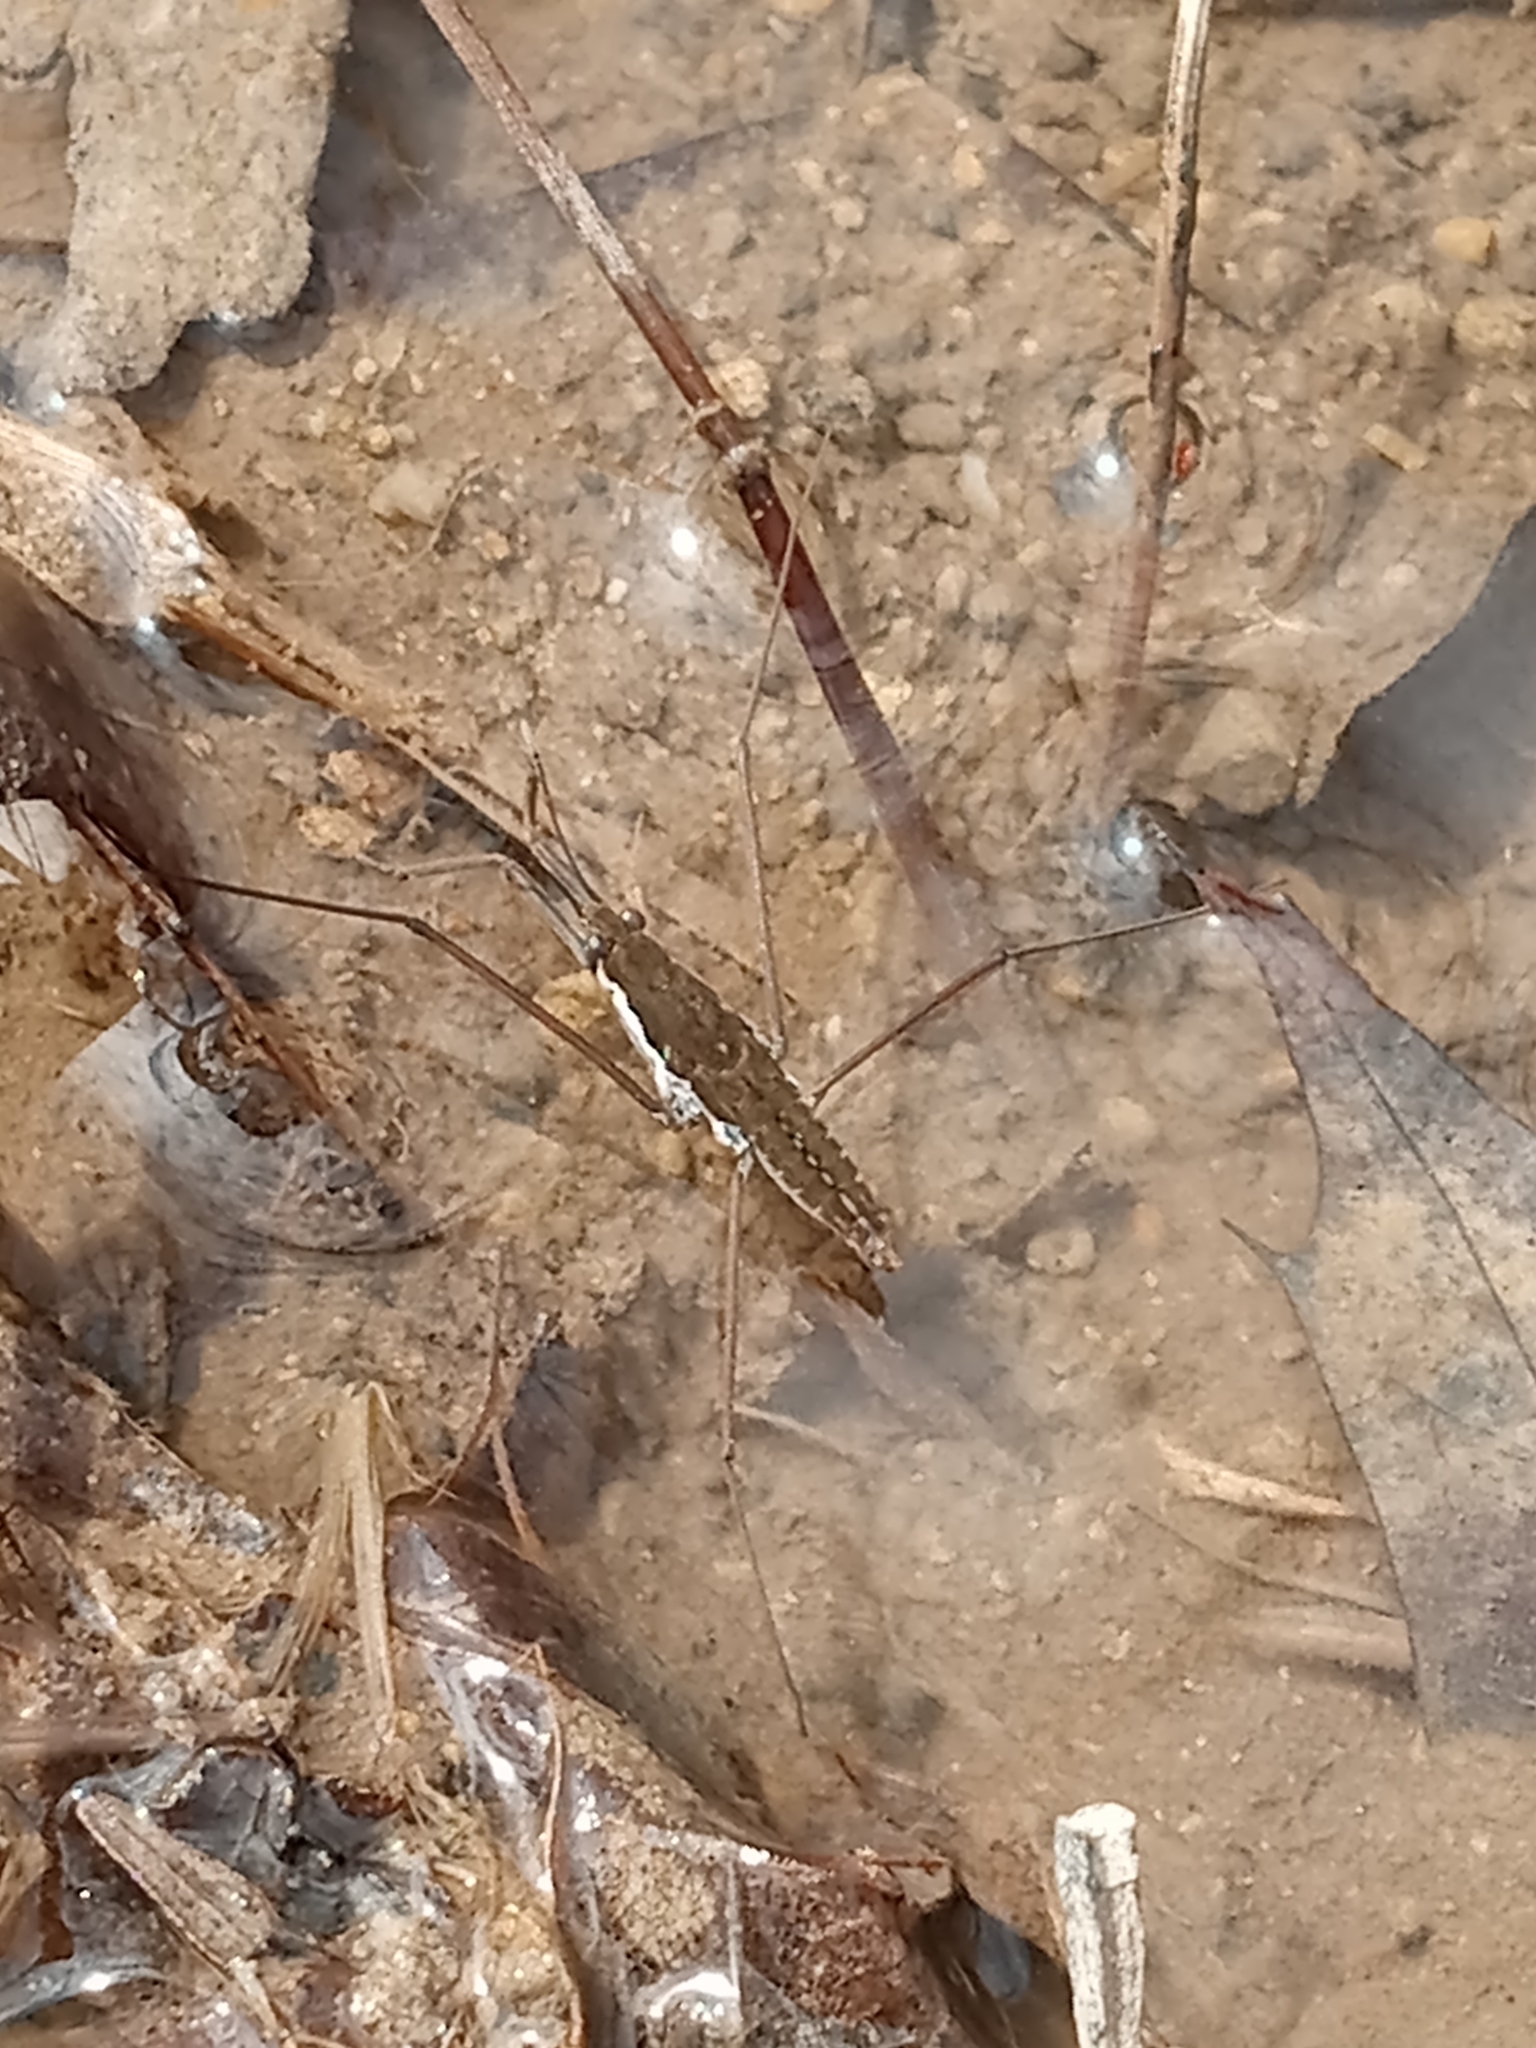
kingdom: Animalia
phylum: Arthropoda
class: Insecta
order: Hemiptera
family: Gerridae
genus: Aquarius
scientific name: Aquarius remigis
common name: Common water strider
